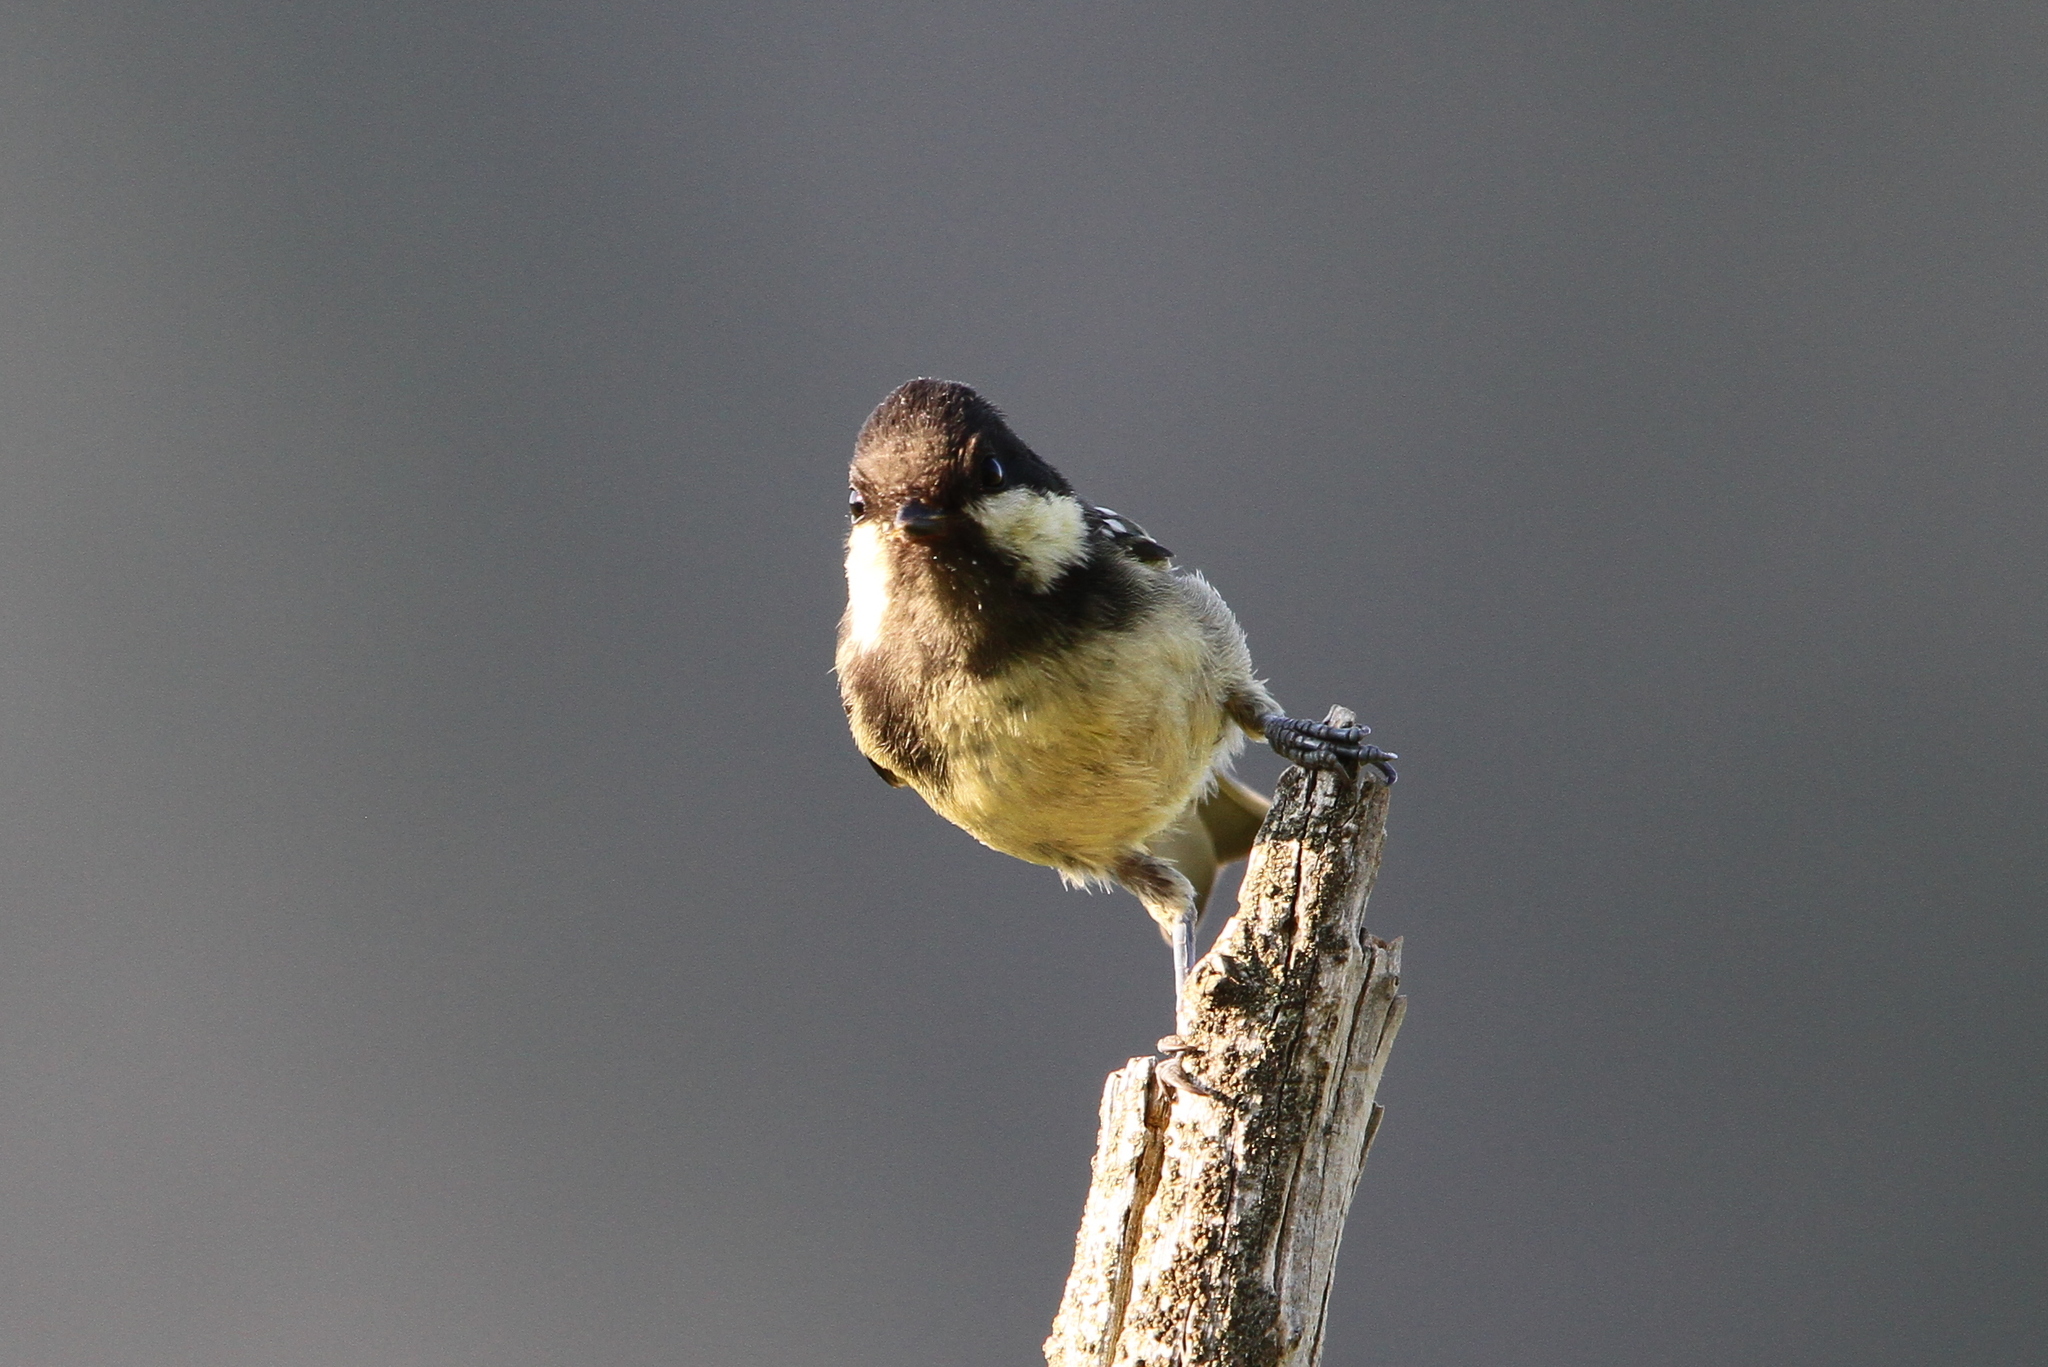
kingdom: Animalia
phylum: Chordata
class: Aves
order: Passeriformes
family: Paridae
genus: Periparus
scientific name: Periparus ater
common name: Coal tit
